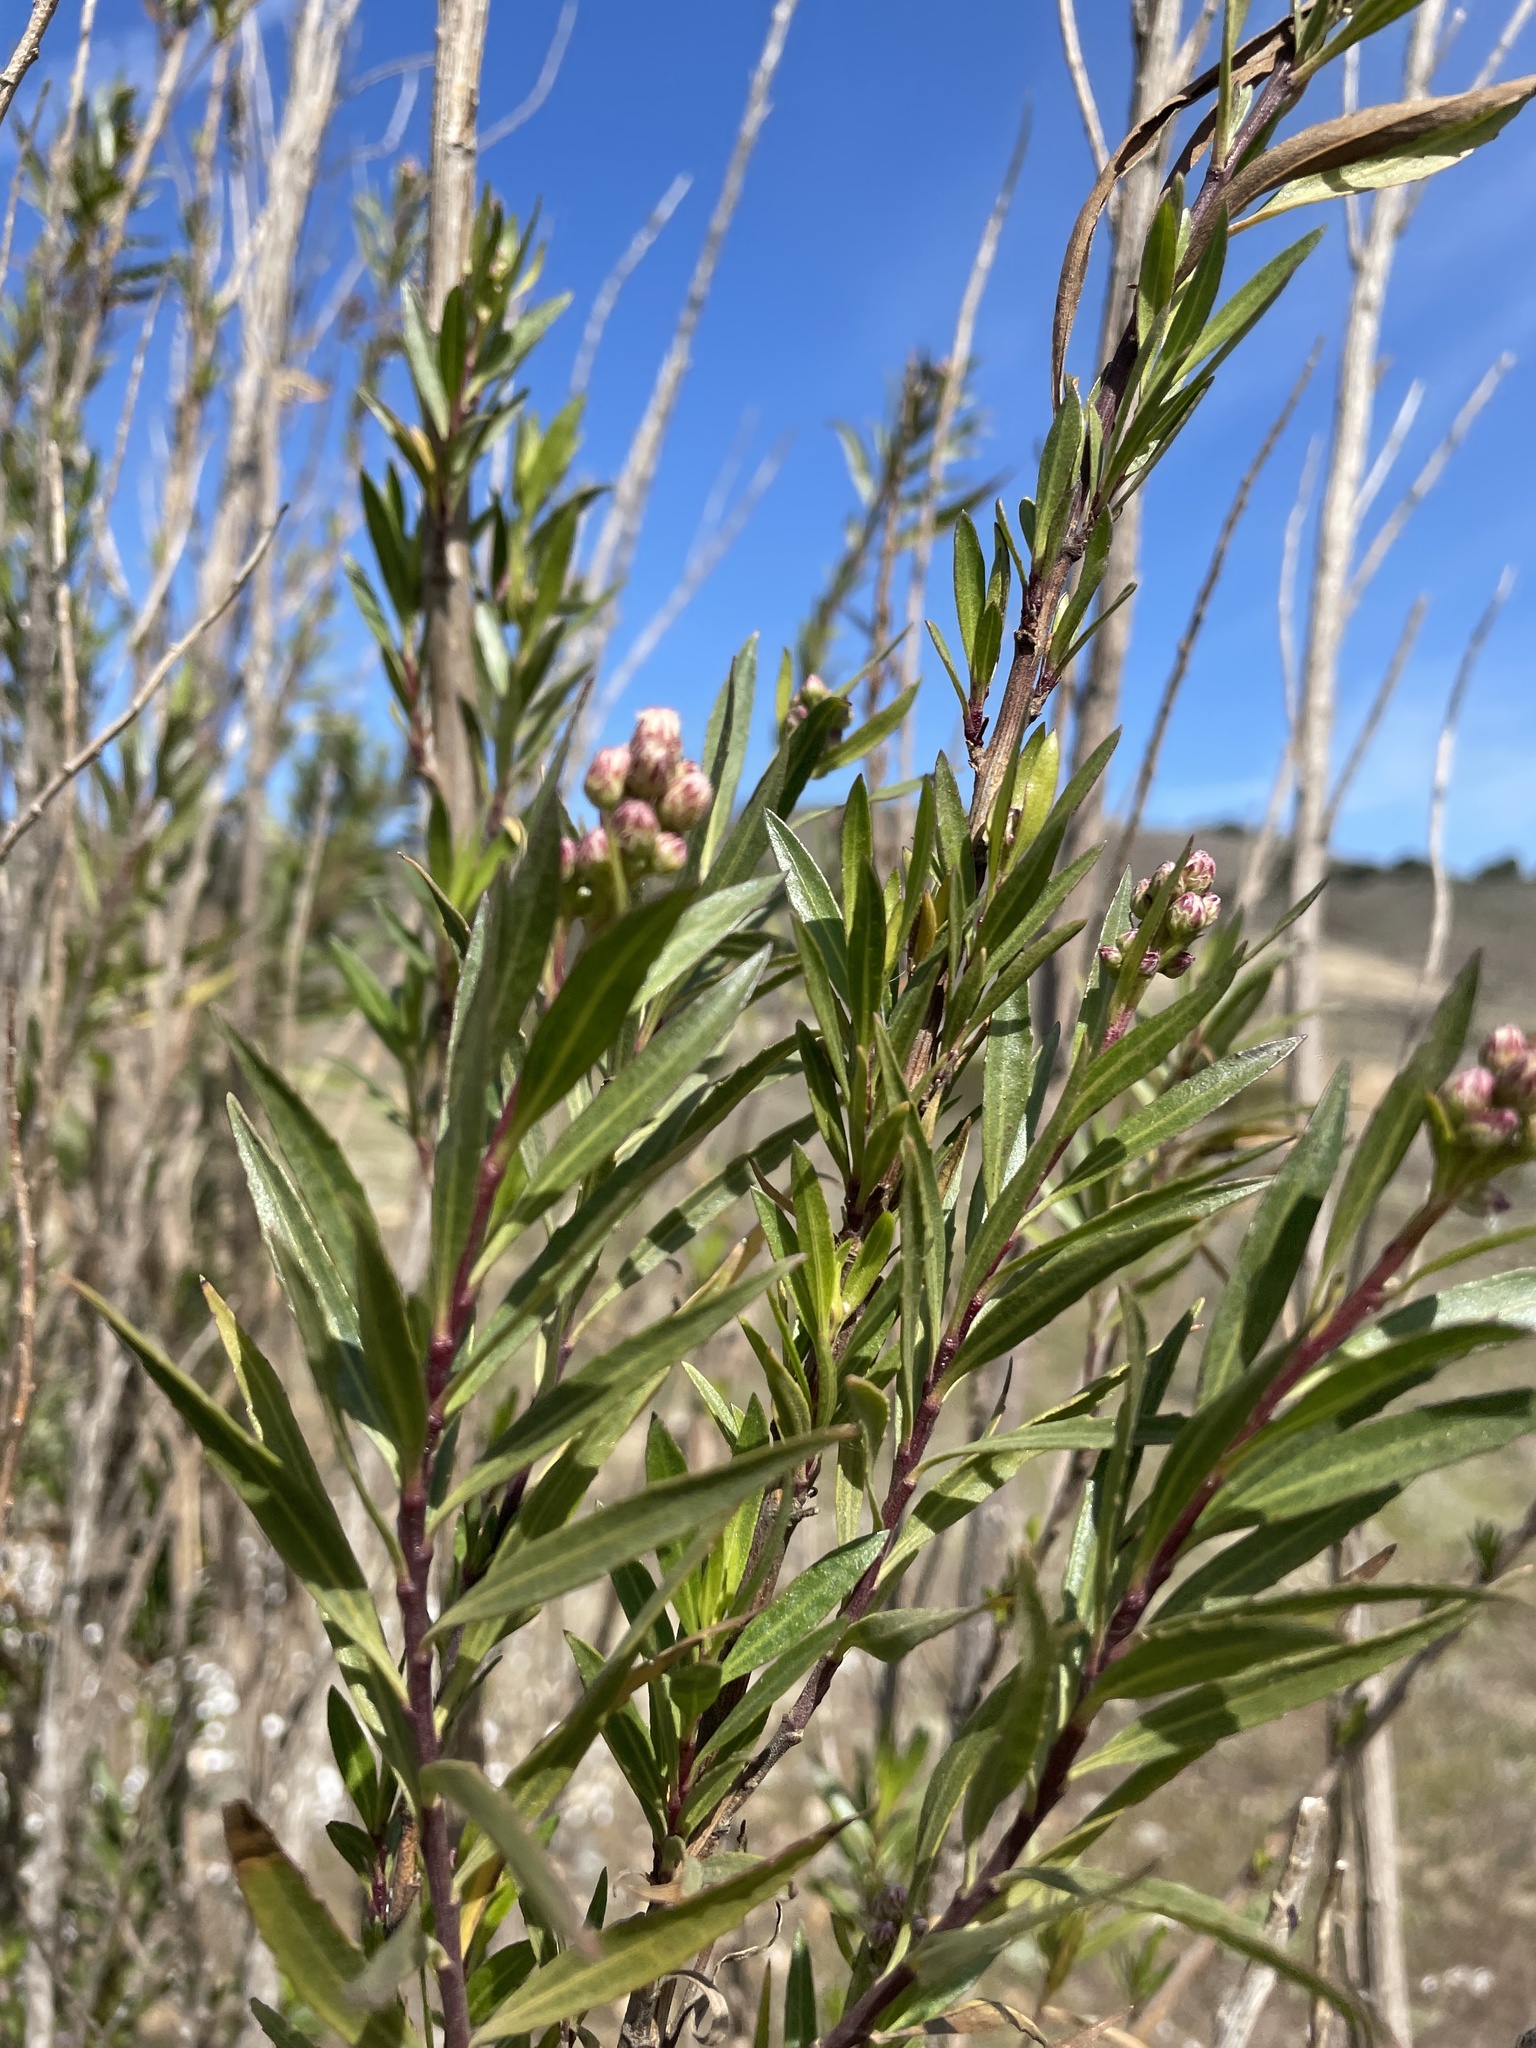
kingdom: Plantae
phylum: Tracheophyta
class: Magnoliopsida
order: Asterales
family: Asteraceae
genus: Baccharis
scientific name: Baccharis salicifolia
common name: Sticky baccharis
